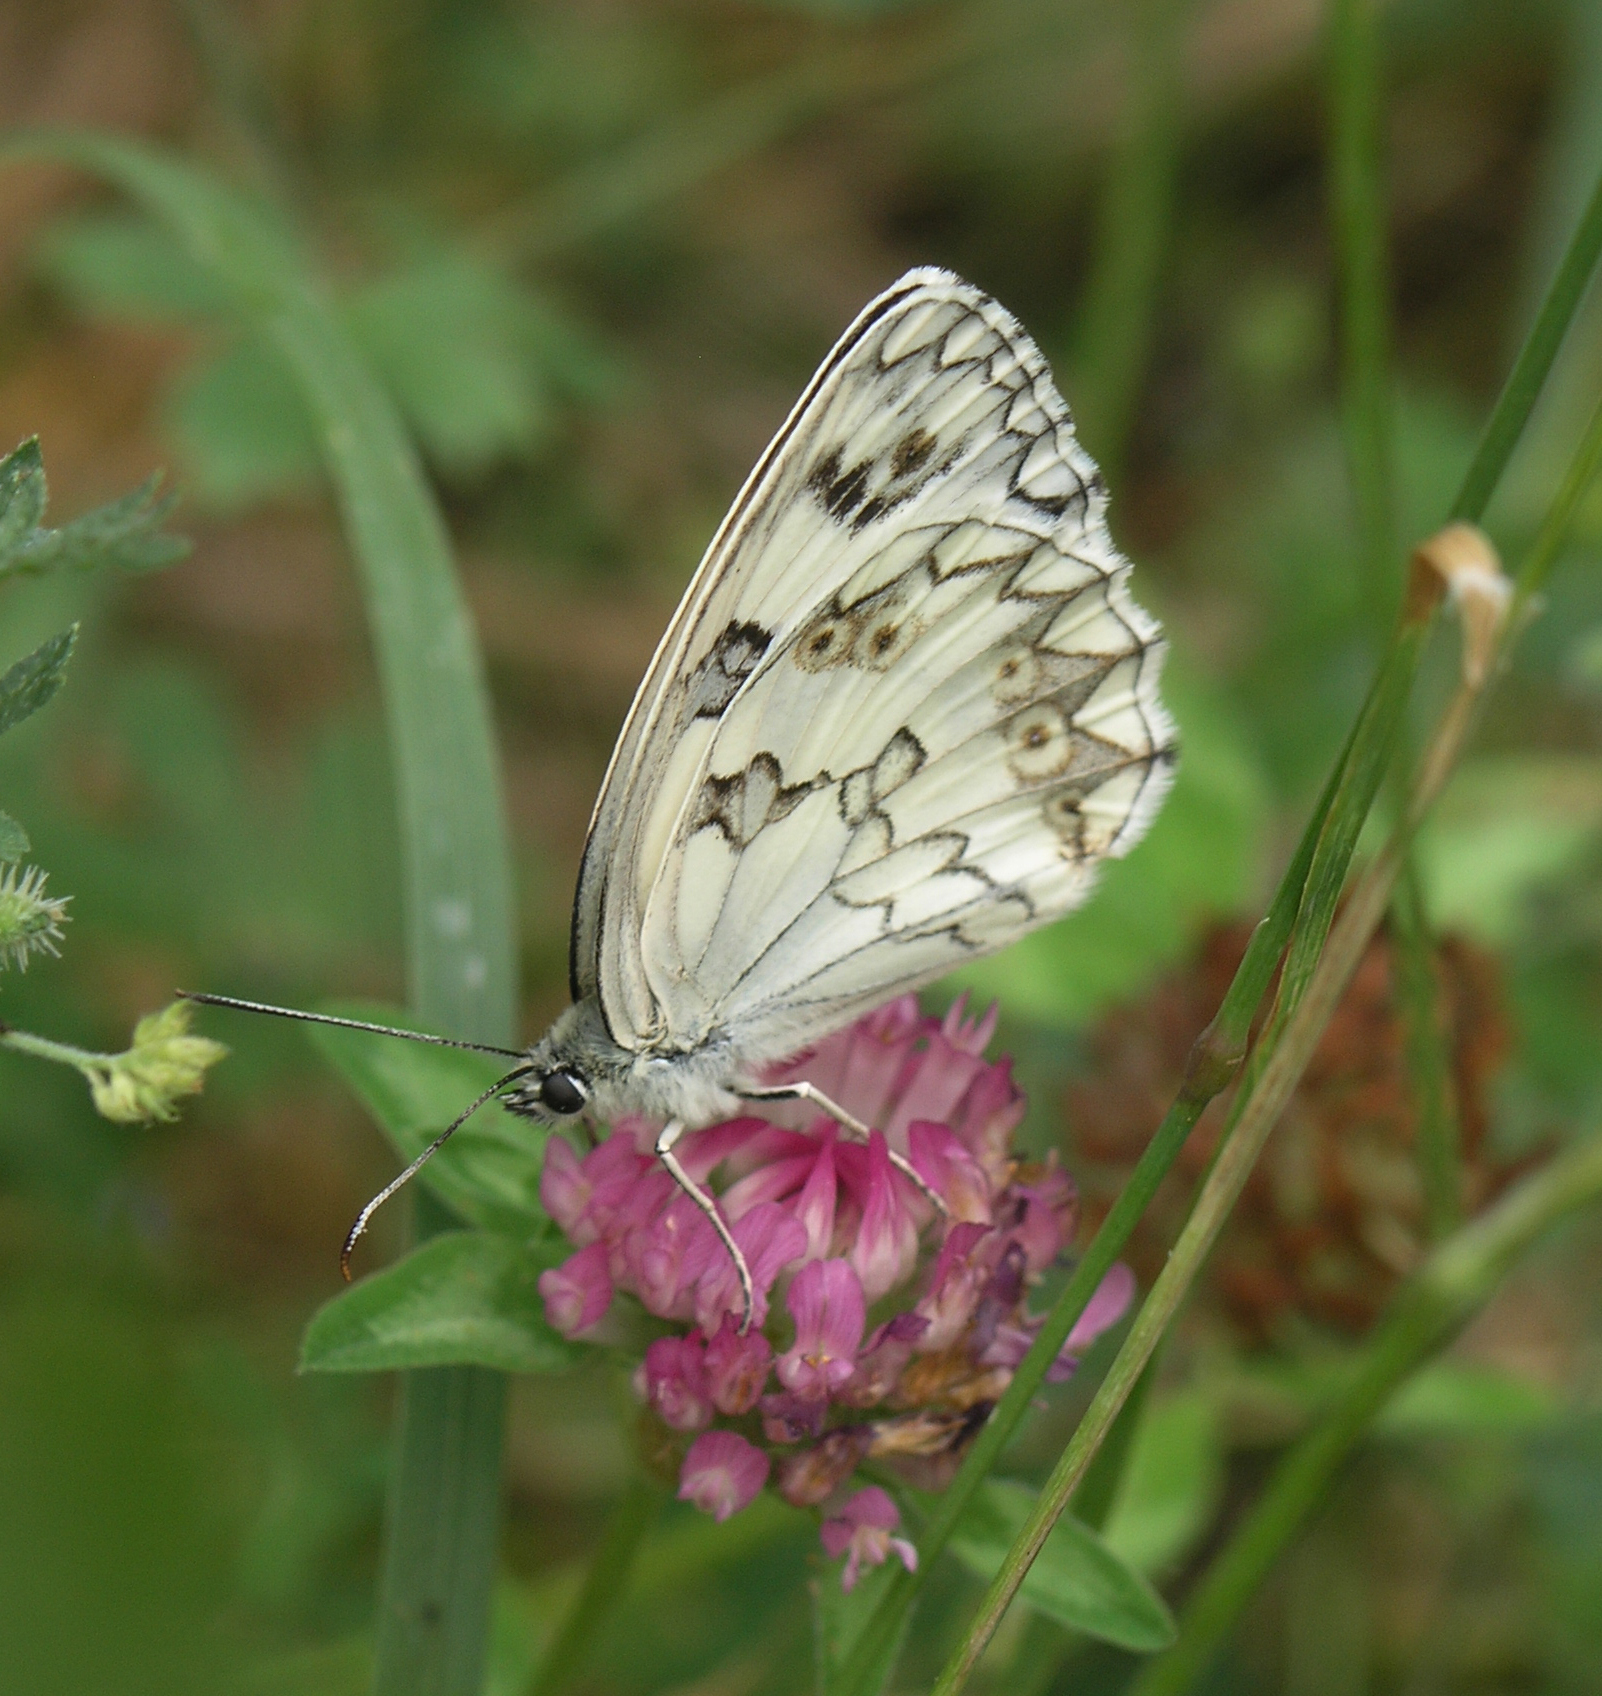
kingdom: Animalia
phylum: Arthropoda
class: Insecta
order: Lepidoptera
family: Nymphalidae
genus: Melanargia
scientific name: Melanargia lachesis
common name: Iberian marbled white
